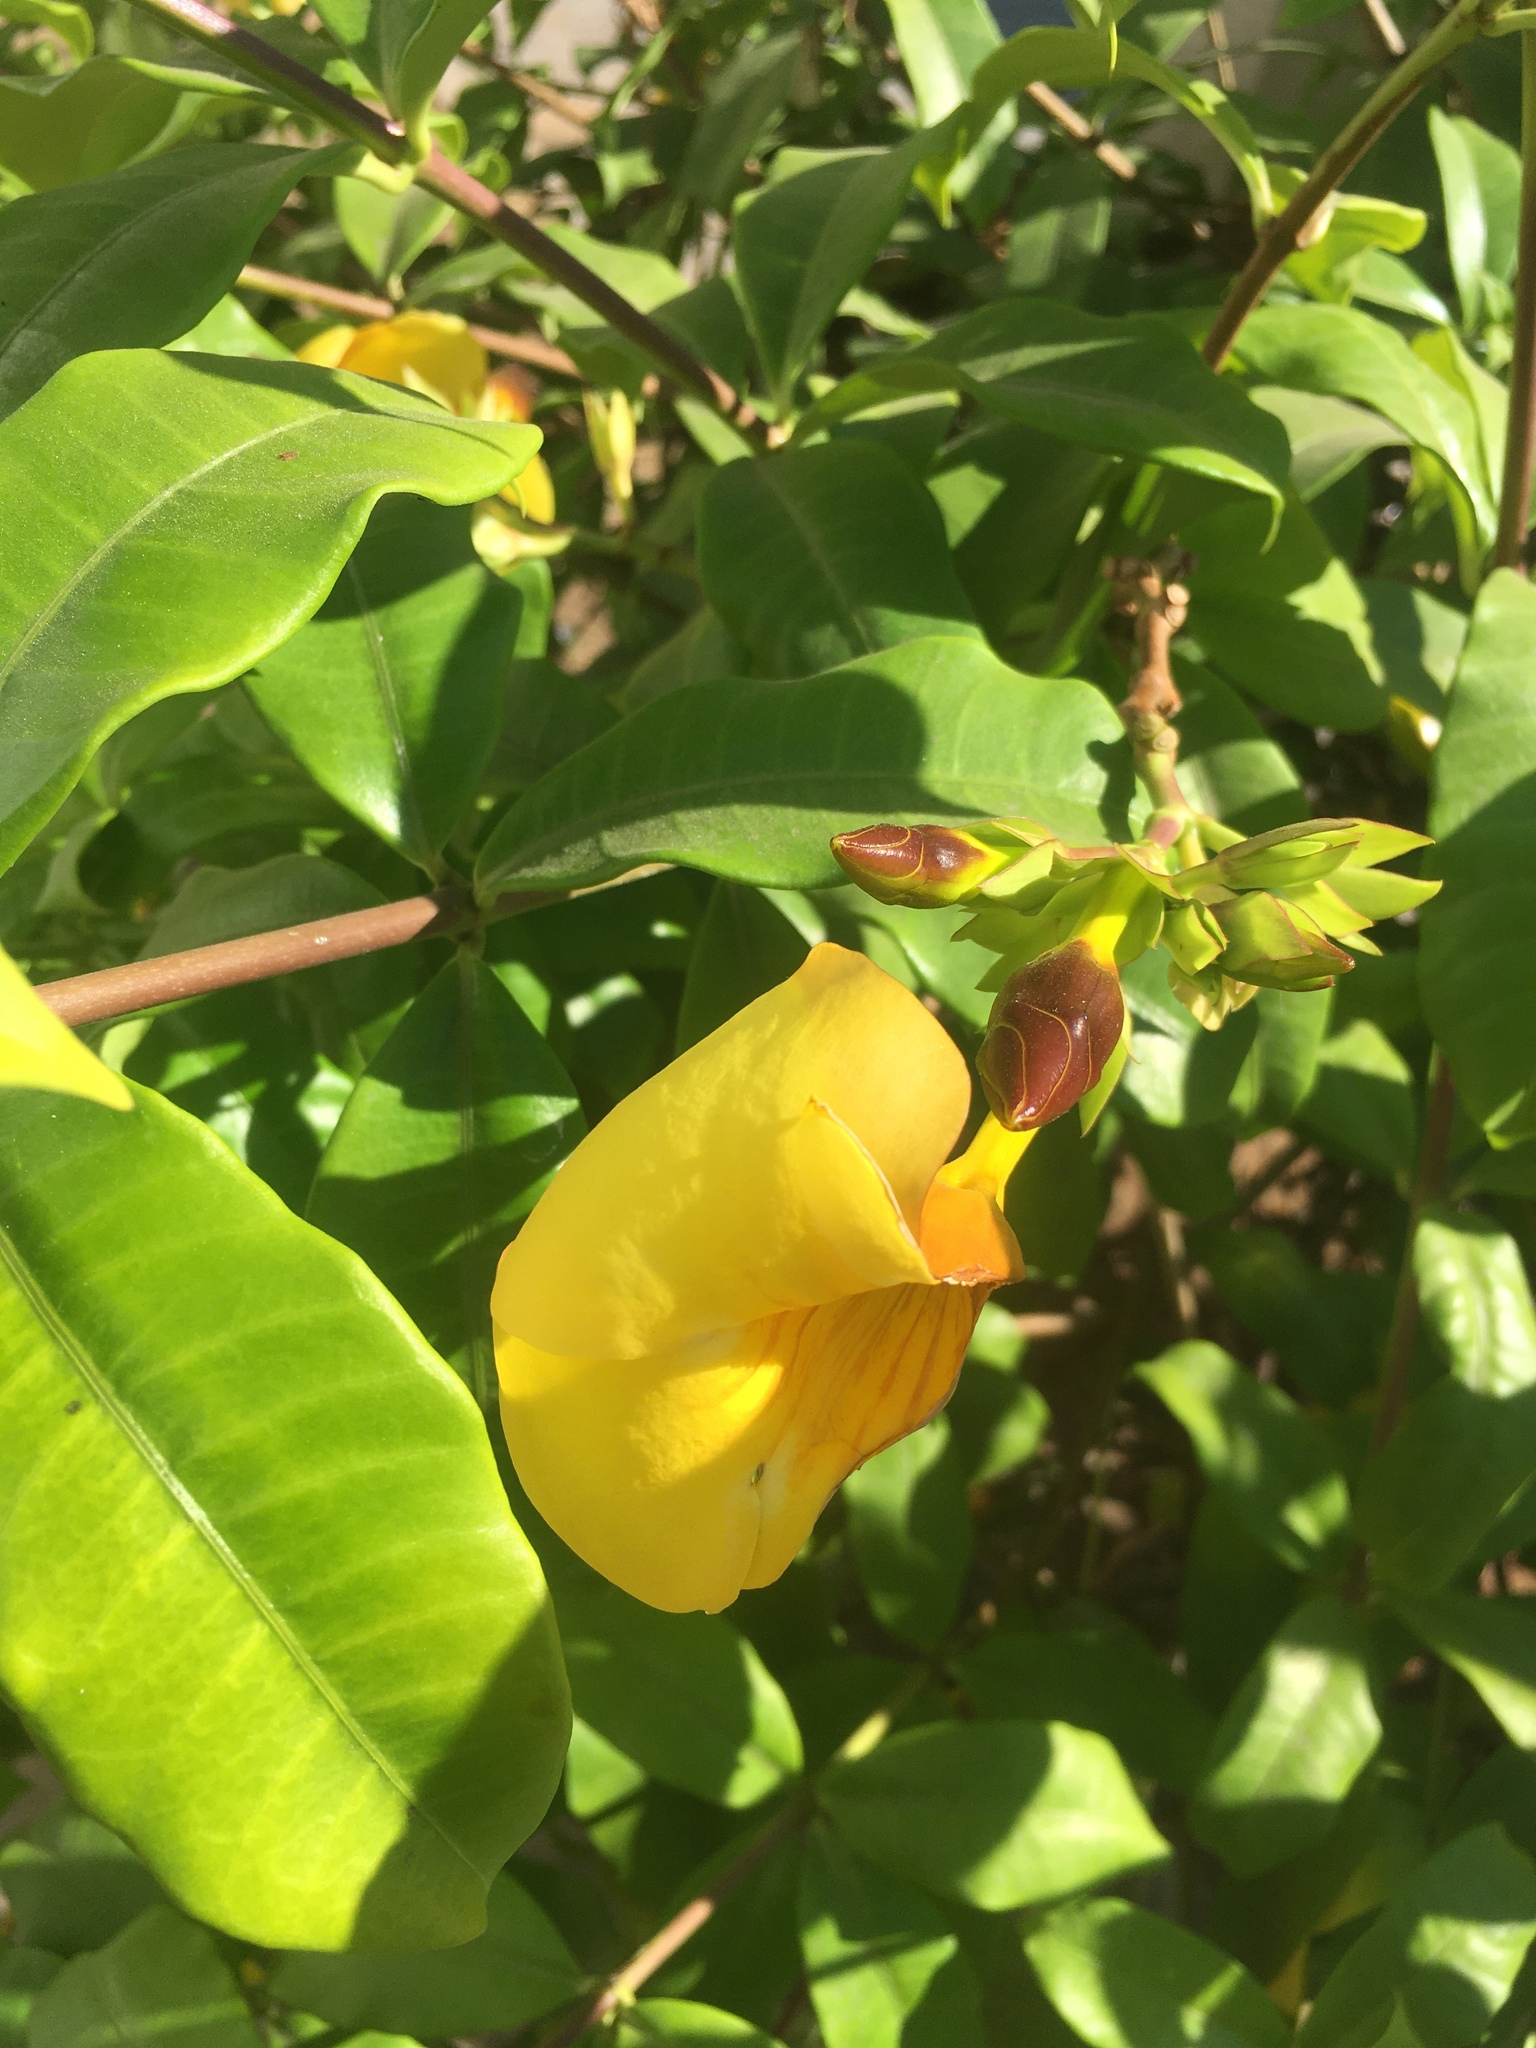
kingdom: Plantae
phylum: Tracheophyta
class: Magnoliopsida
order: Gentianales
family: Apocynaceae
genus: Allamanda
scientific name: Allamanda cathartica
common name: Golden trumpet
